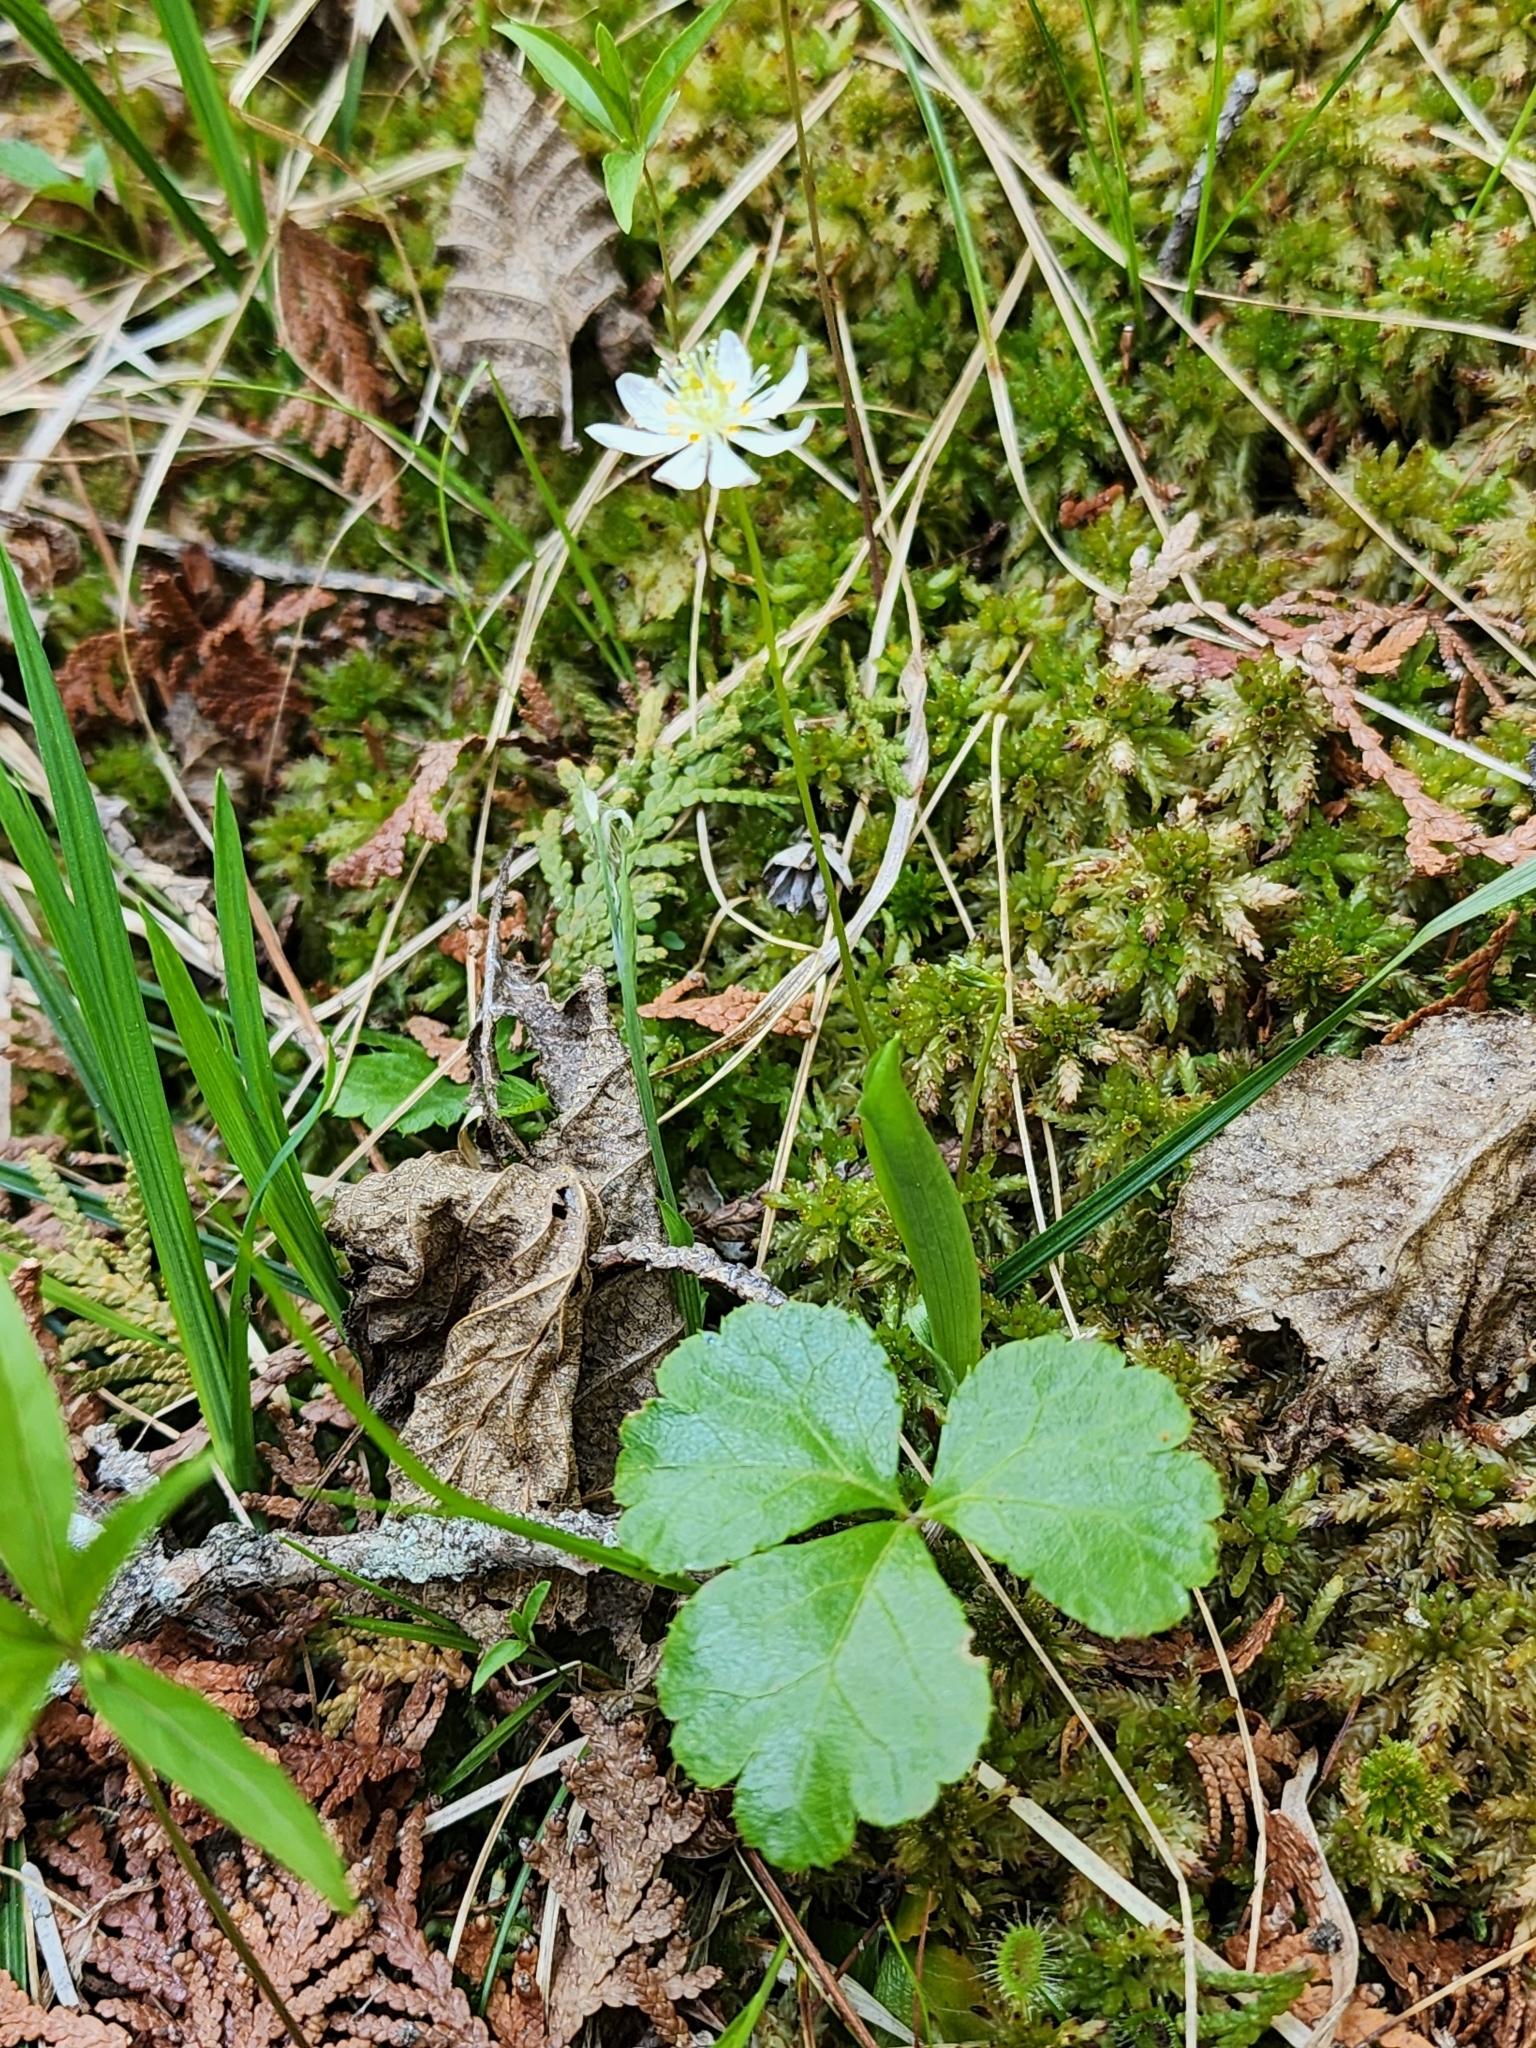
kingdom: Plantae
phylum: Tracheophyta
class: Magnoliopsida
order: Ranunculales
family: Ranunculaceae
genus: Coptis
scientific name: Coptis trifolia
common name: Canker-root
